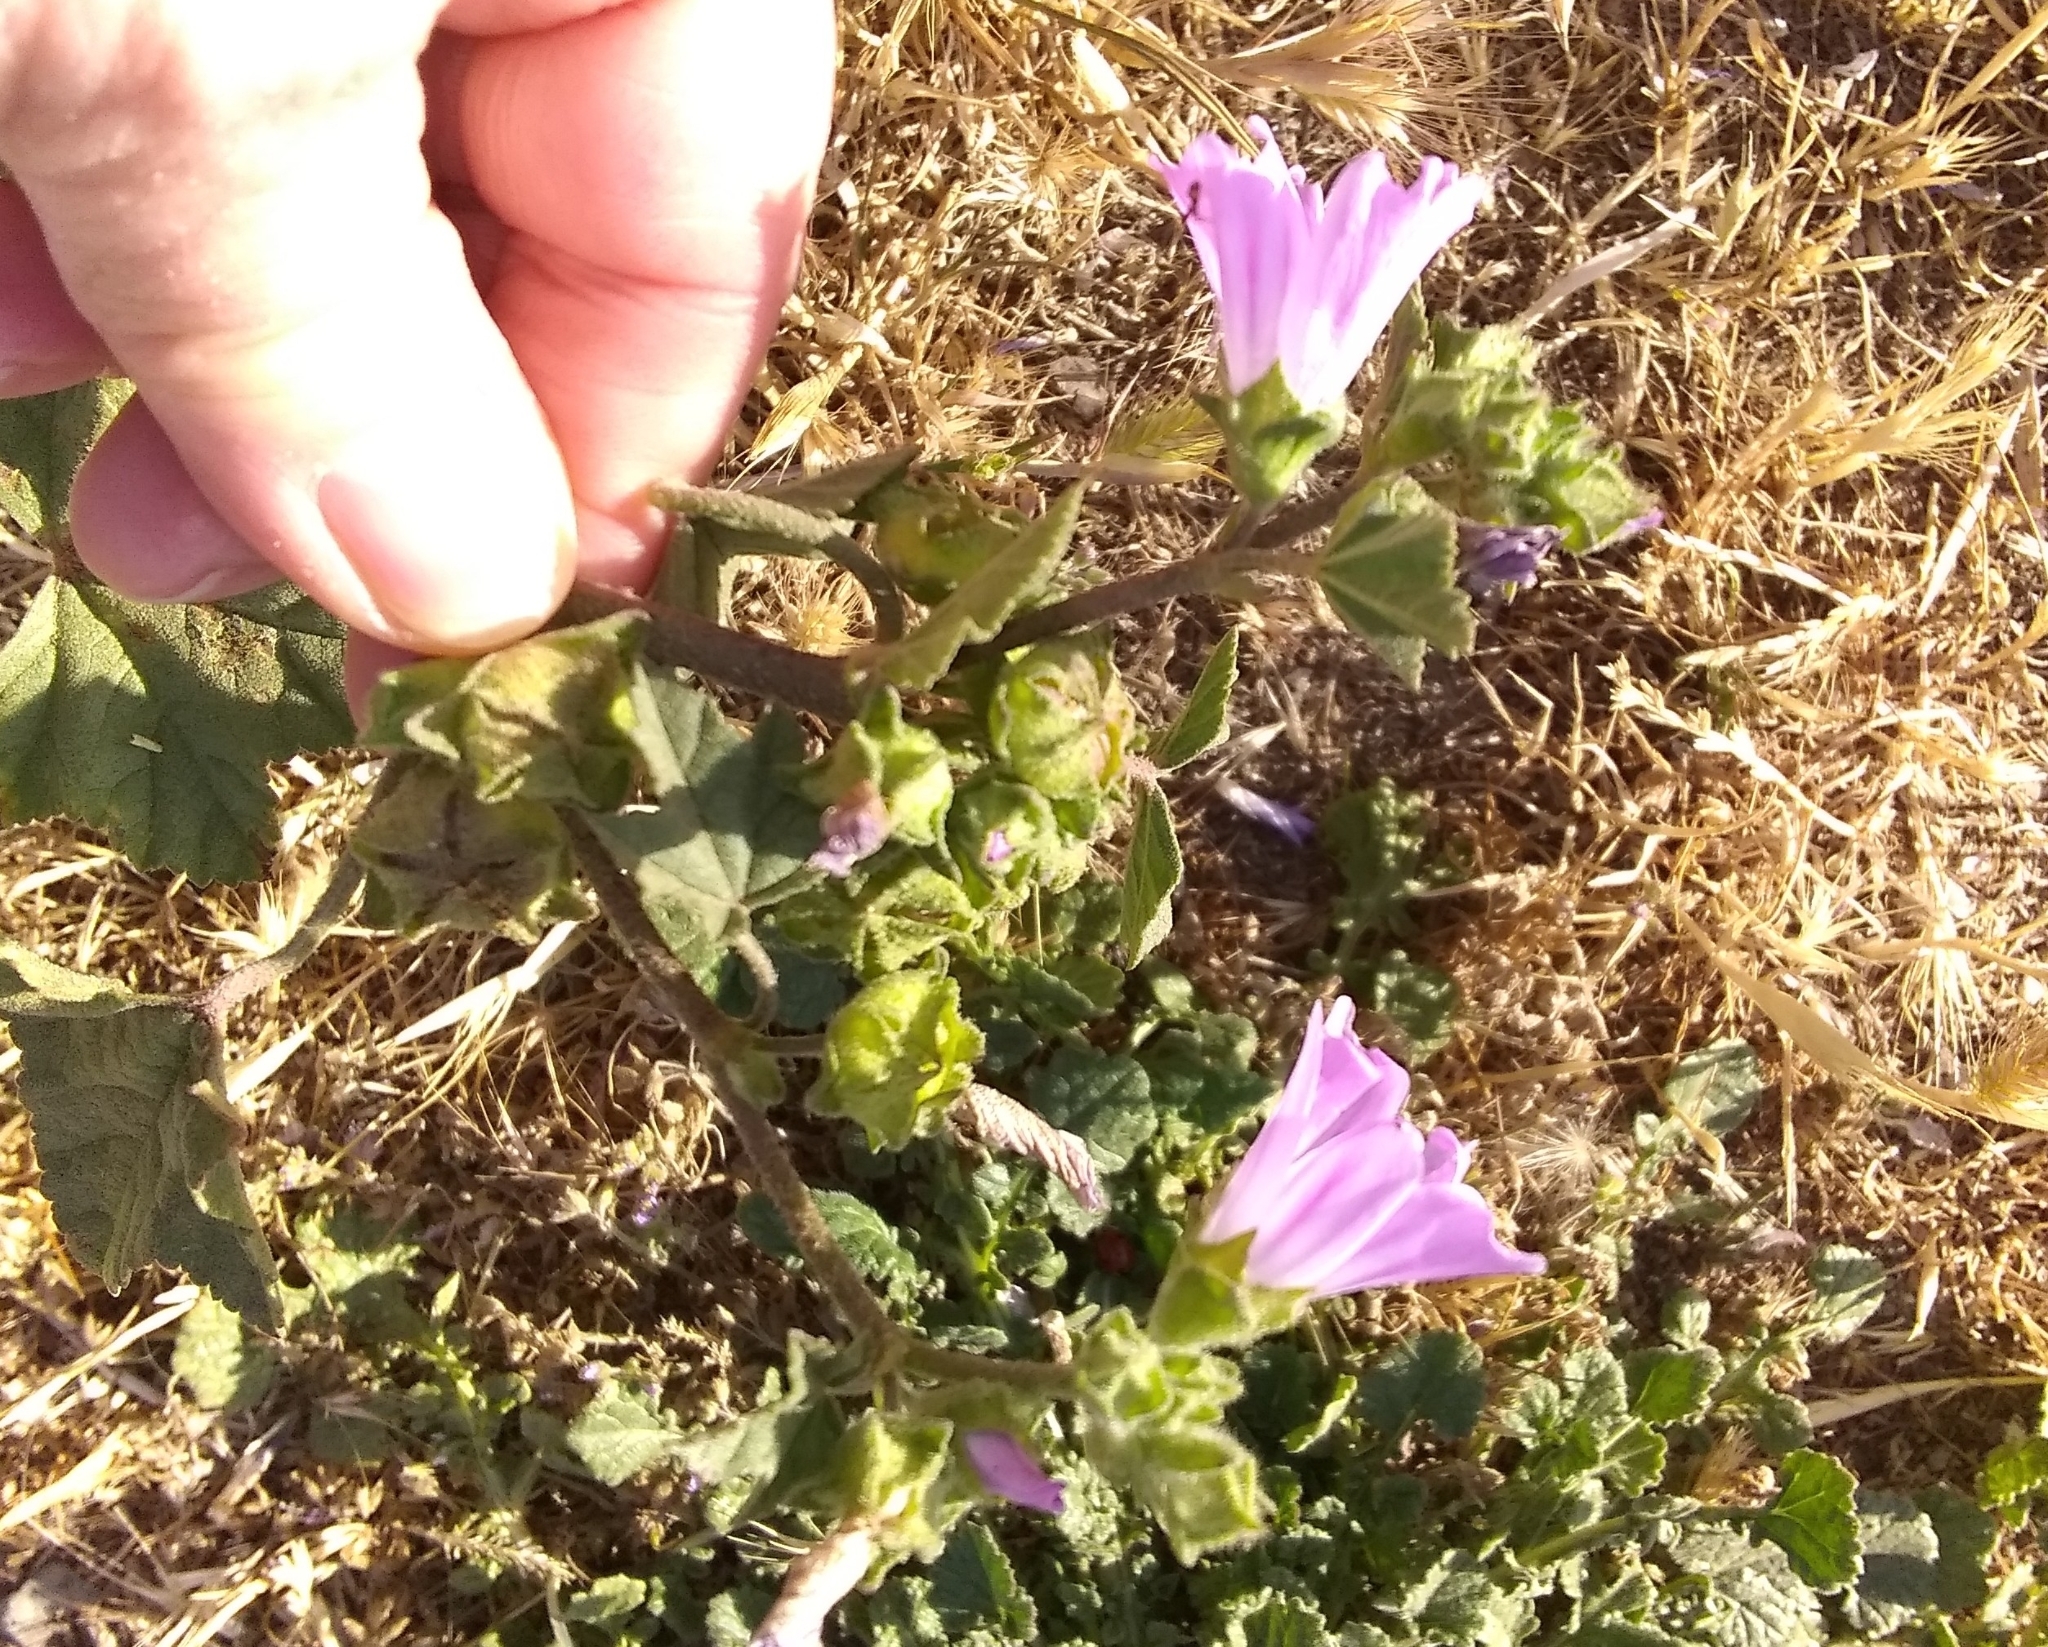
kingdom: Plantae
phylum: Tracheophyta
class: Magnoliopsida
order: Malvales
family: Malvaceae
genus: Malva
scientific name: Malva multiflora
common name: Cheeseweed
